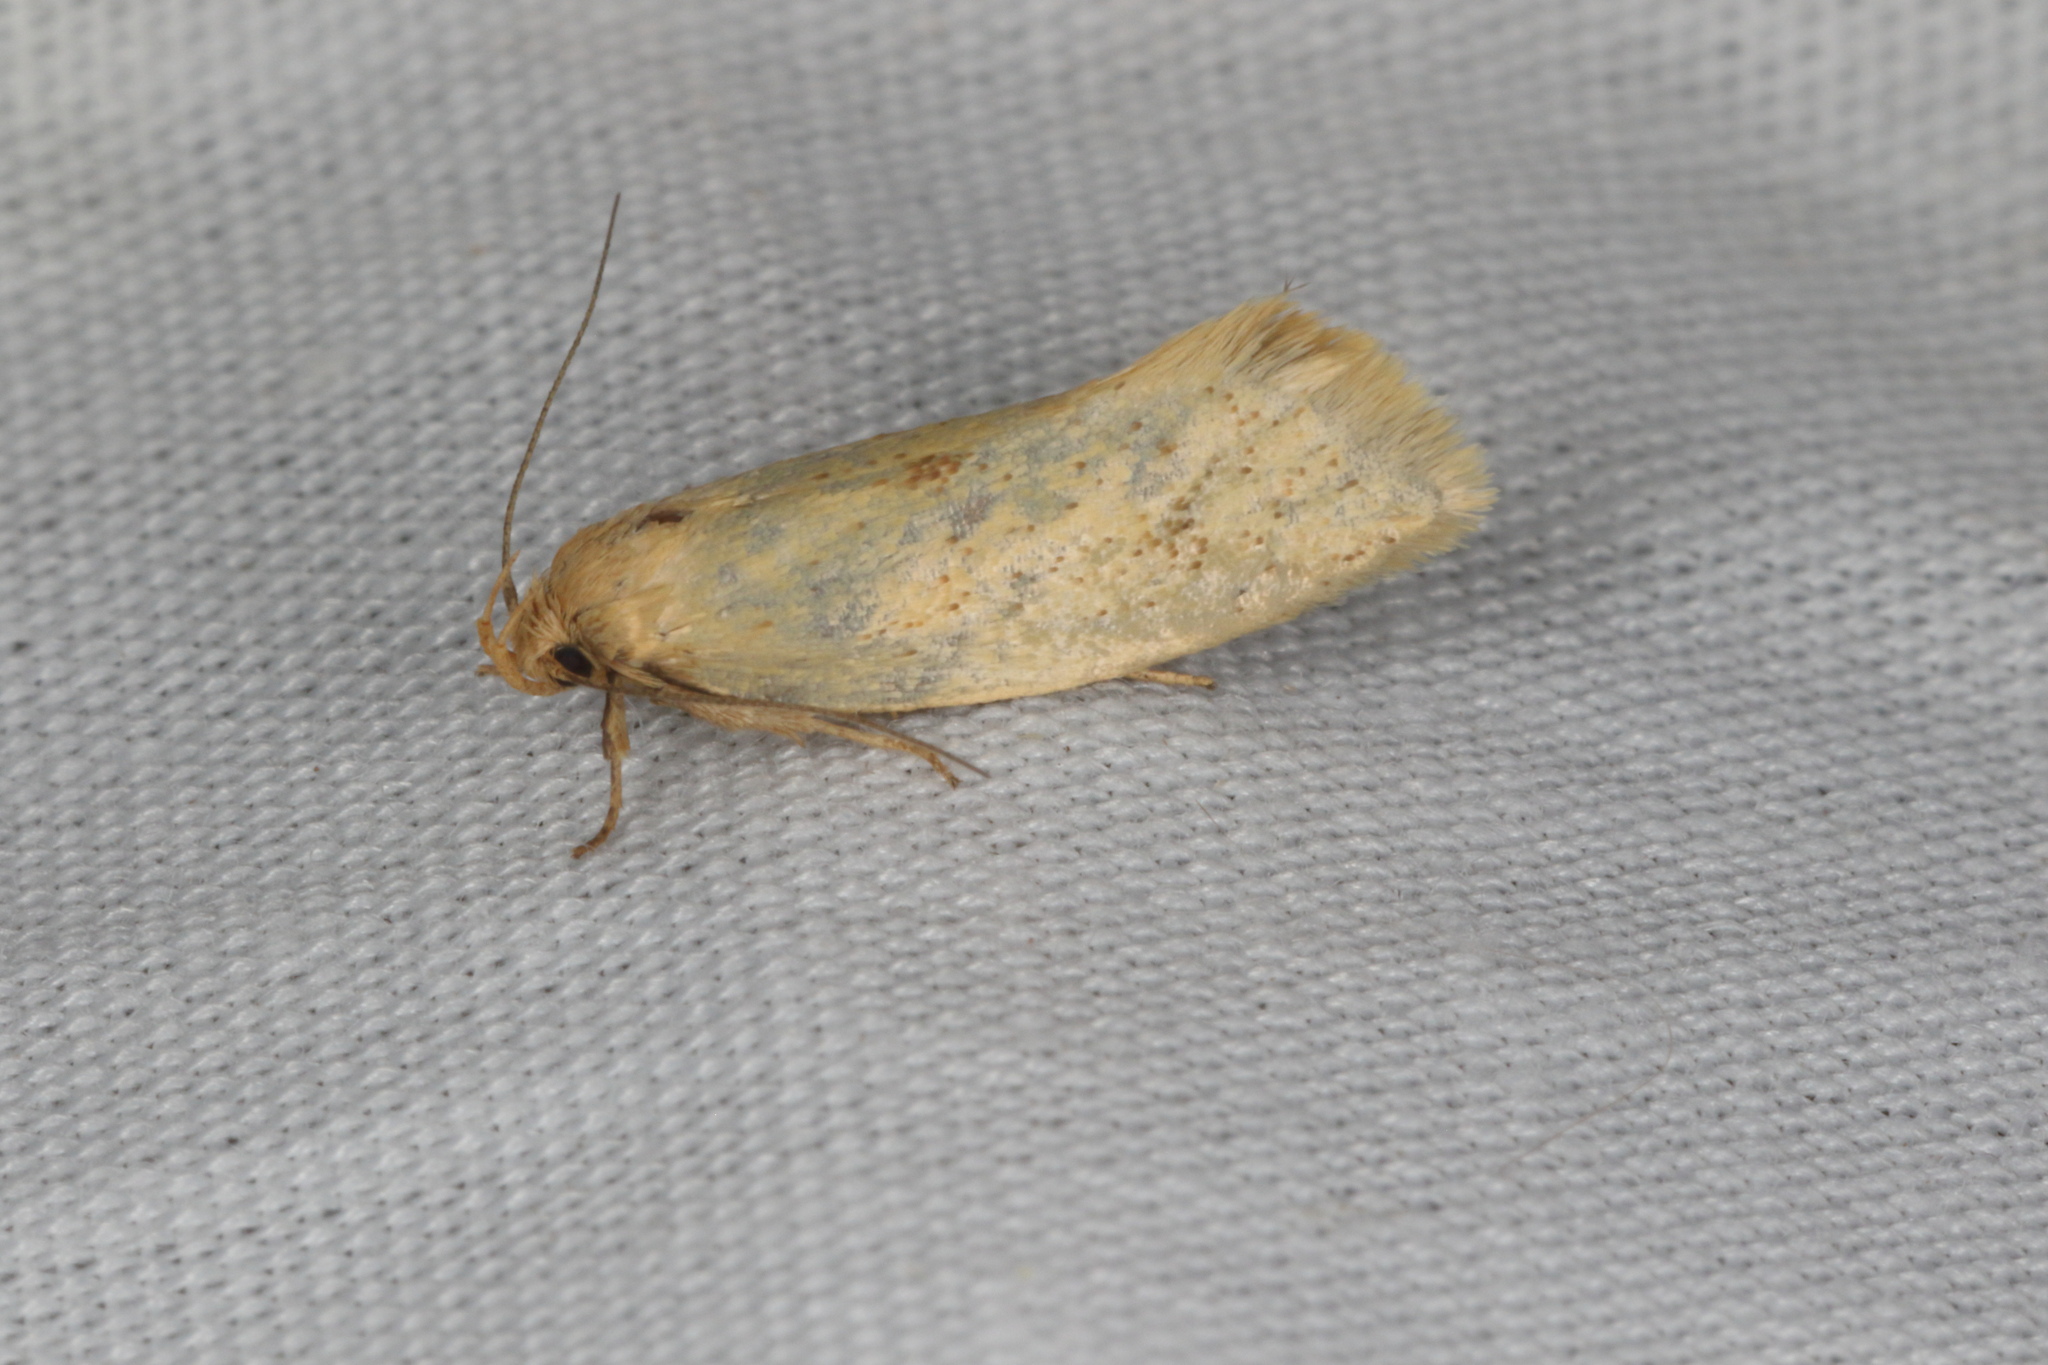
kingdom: Animalia
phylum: Arthropoda
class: Insecta
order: Lepidoptera
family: Oecophoridae
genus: Tingena
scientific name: Tingena armigerella
